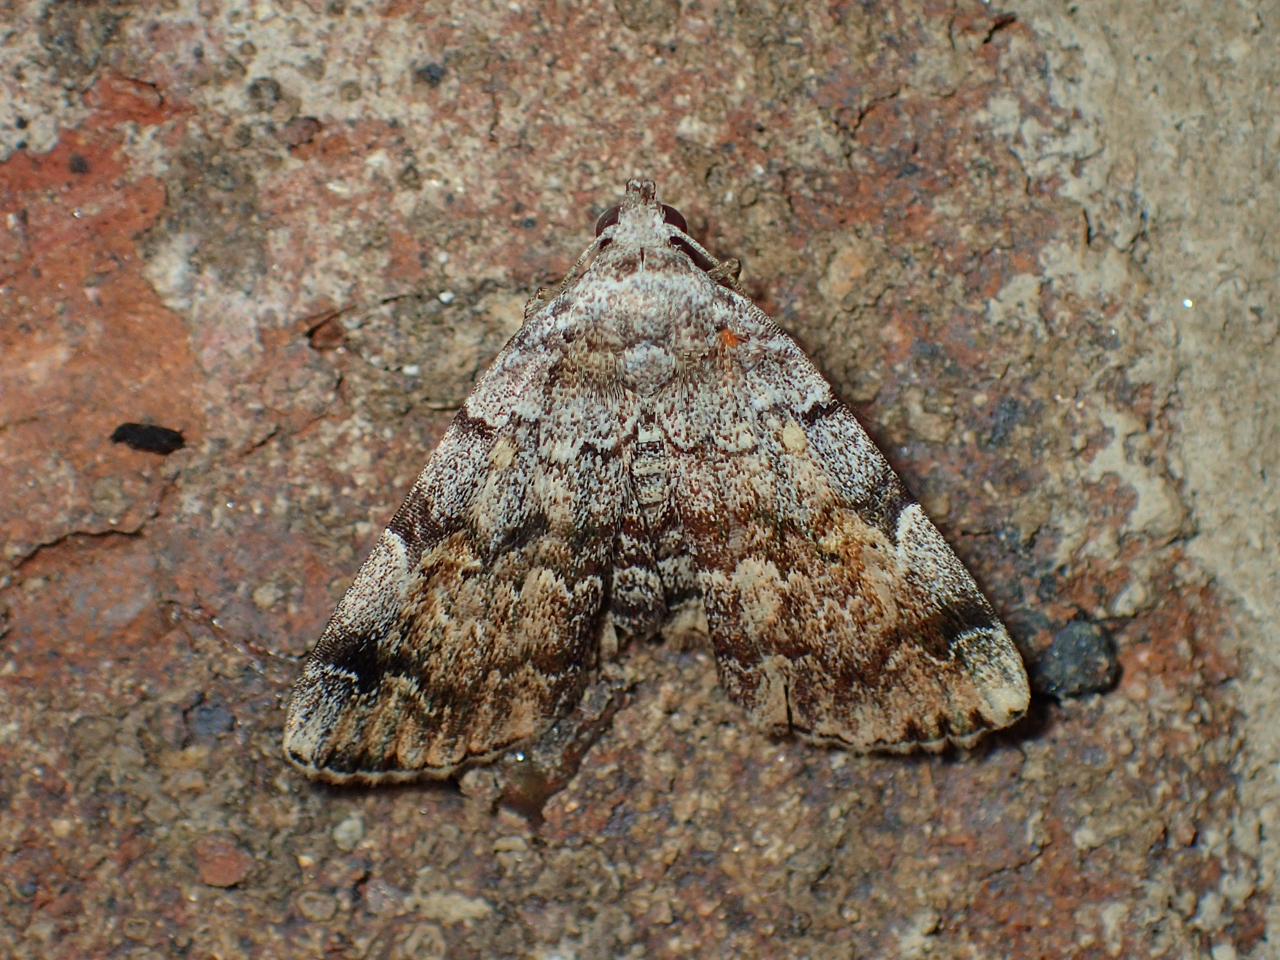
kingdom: Animalia
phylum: Arthropoda
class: Insecta
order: Lepidoptera
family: Erebidae
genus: Idia
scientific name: Idia americalis
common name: American idia moth
